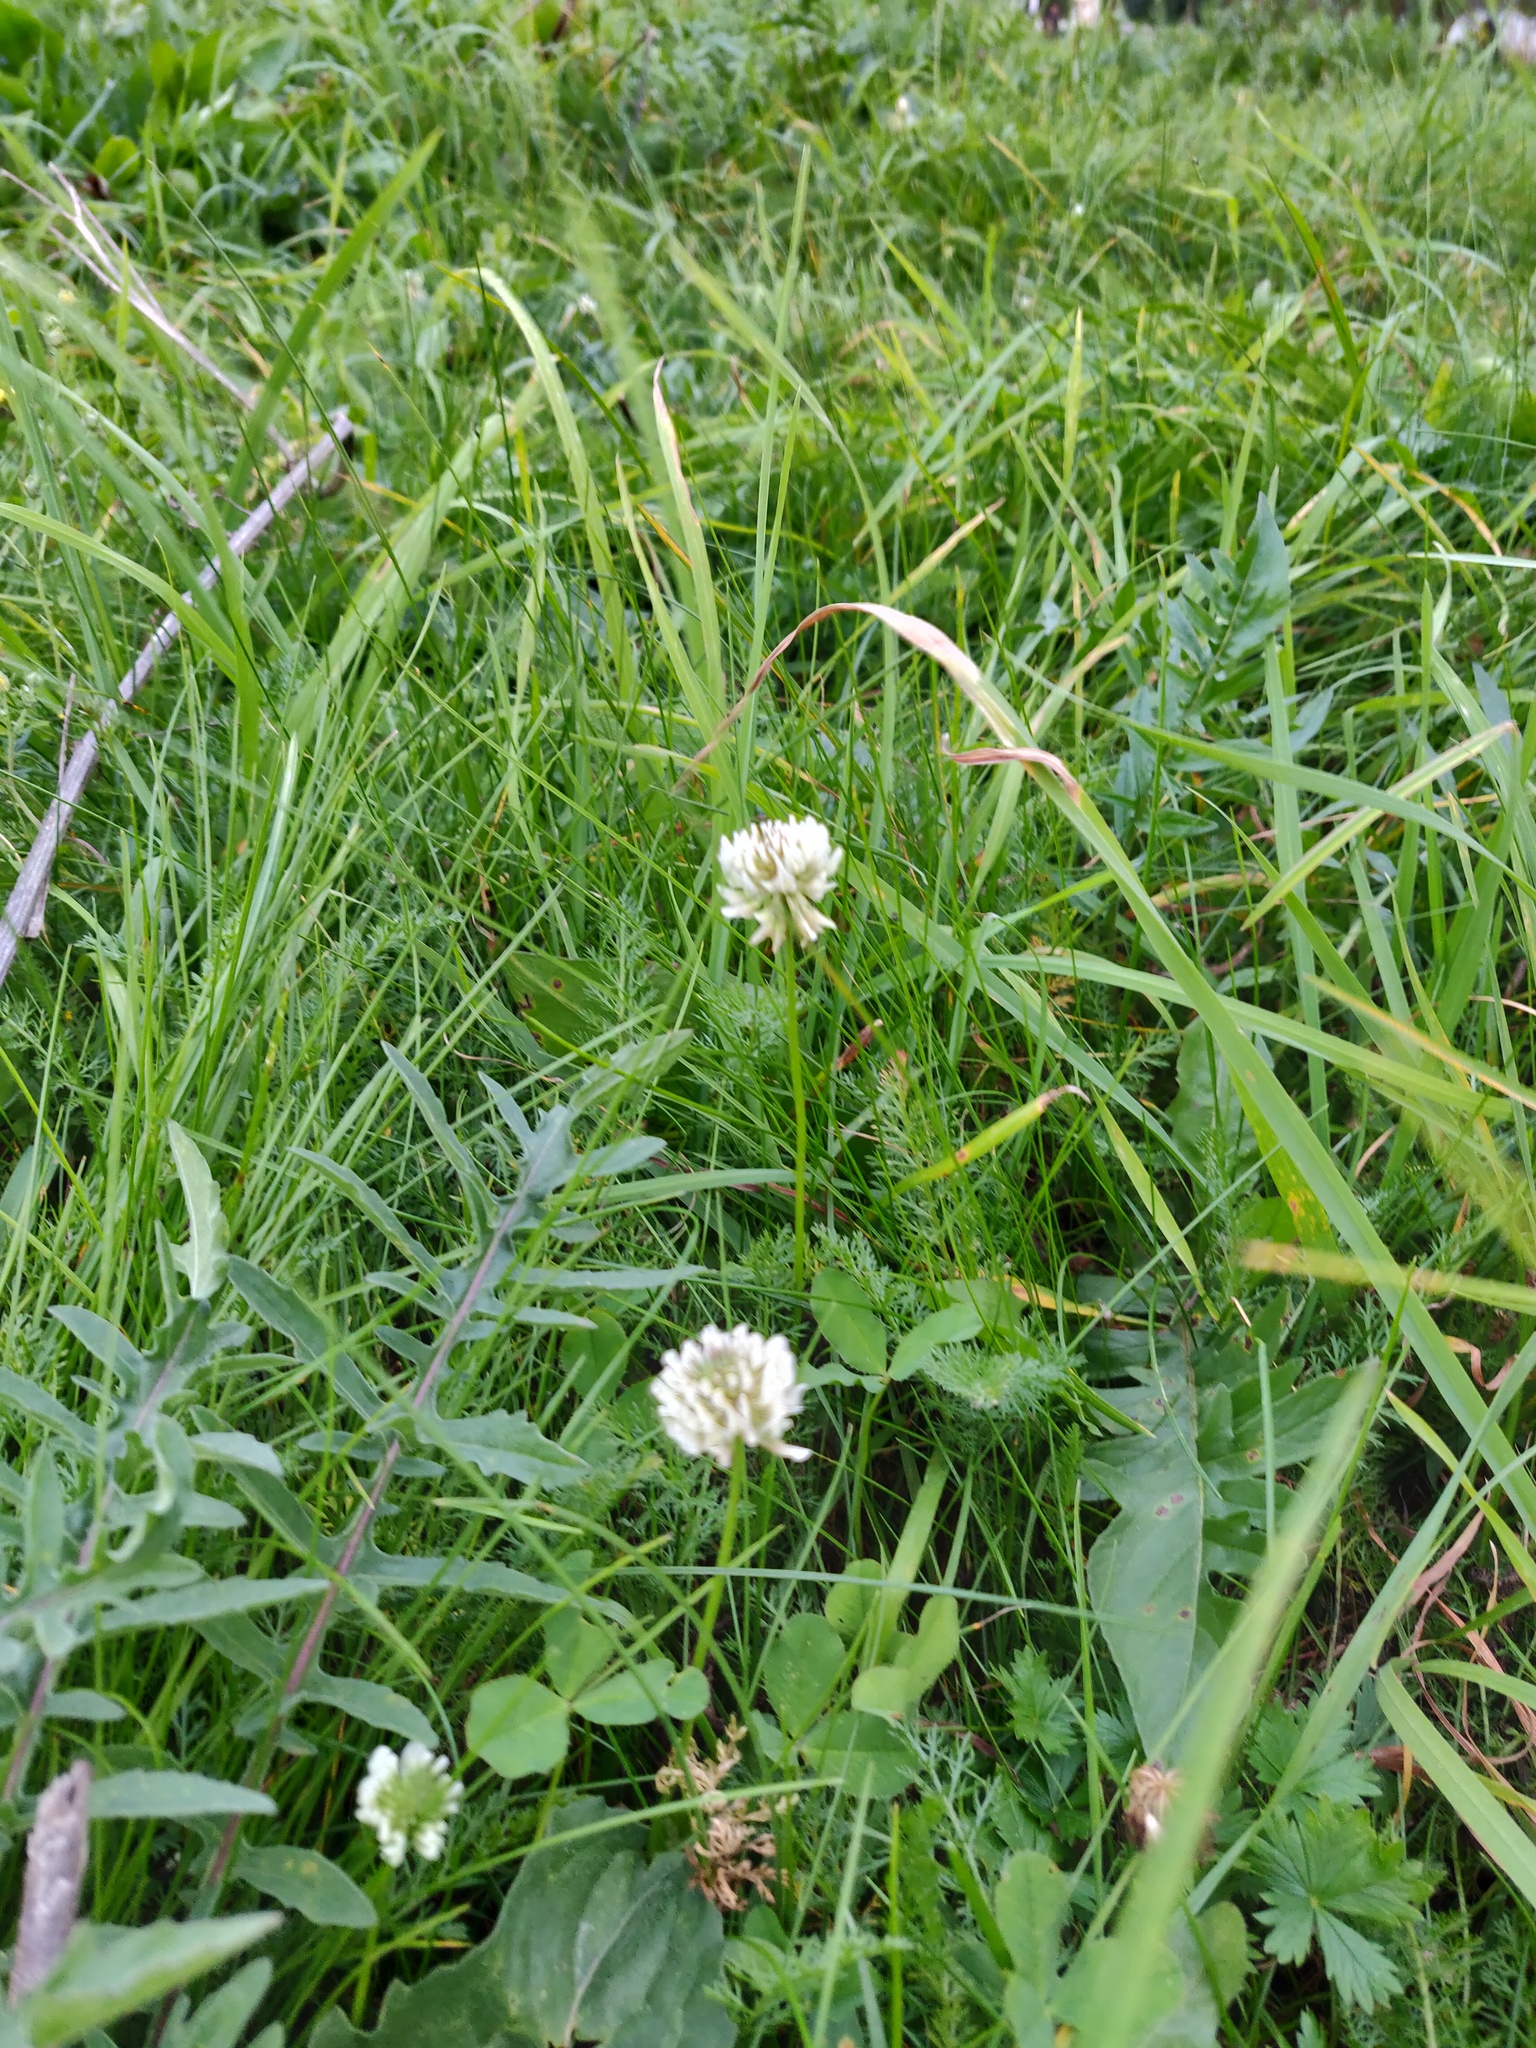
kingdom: Plantae
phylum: Tracheophyta
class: Magnoliopsida
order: Fabales
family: Fabaceae
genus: Trifolium
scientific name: Trifolium repens
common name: White clover
